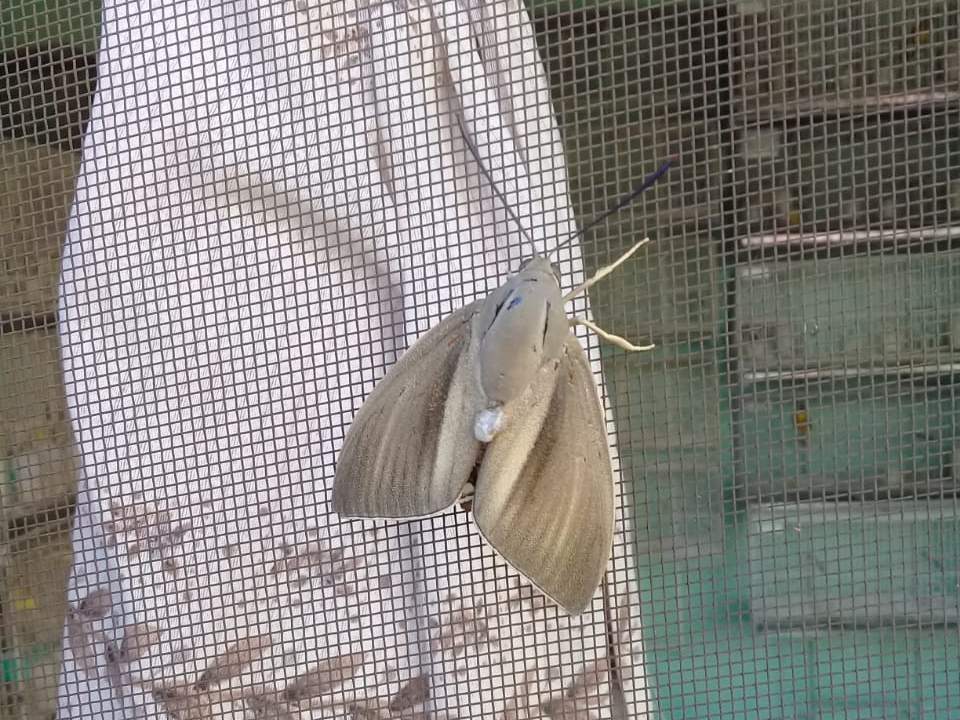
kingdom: Animalia
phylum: Arthropoda
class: Insecta
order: Lepidoptera
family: Castniidae
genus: Paysandisia
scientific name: Paysandisia archon
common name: Palm moth
